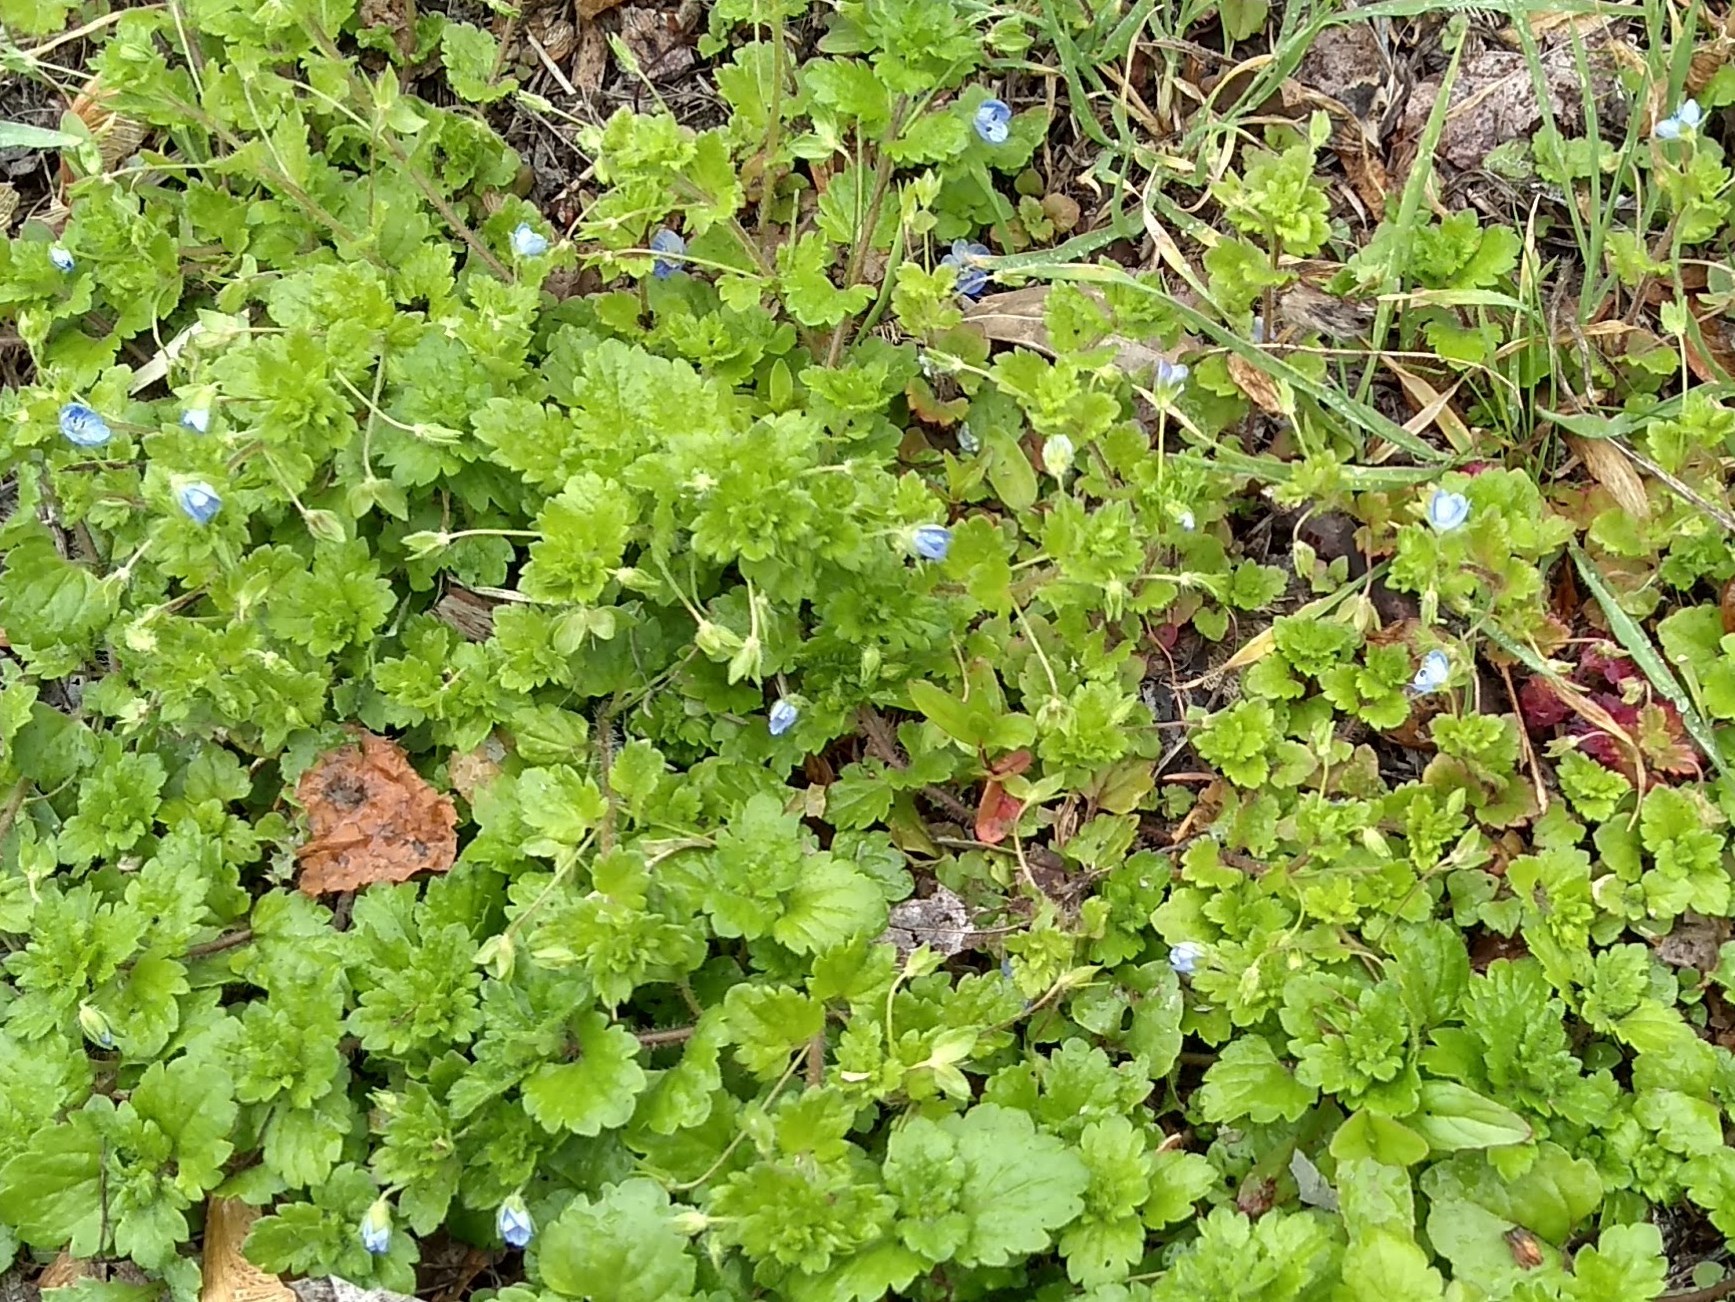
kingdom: Plantae
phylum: Tracheophyta
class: Magnoliopsida
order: Lamiales
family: Plantaginaceae
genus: Veronica
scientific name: Veronica persica
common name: Common field-speedwell
